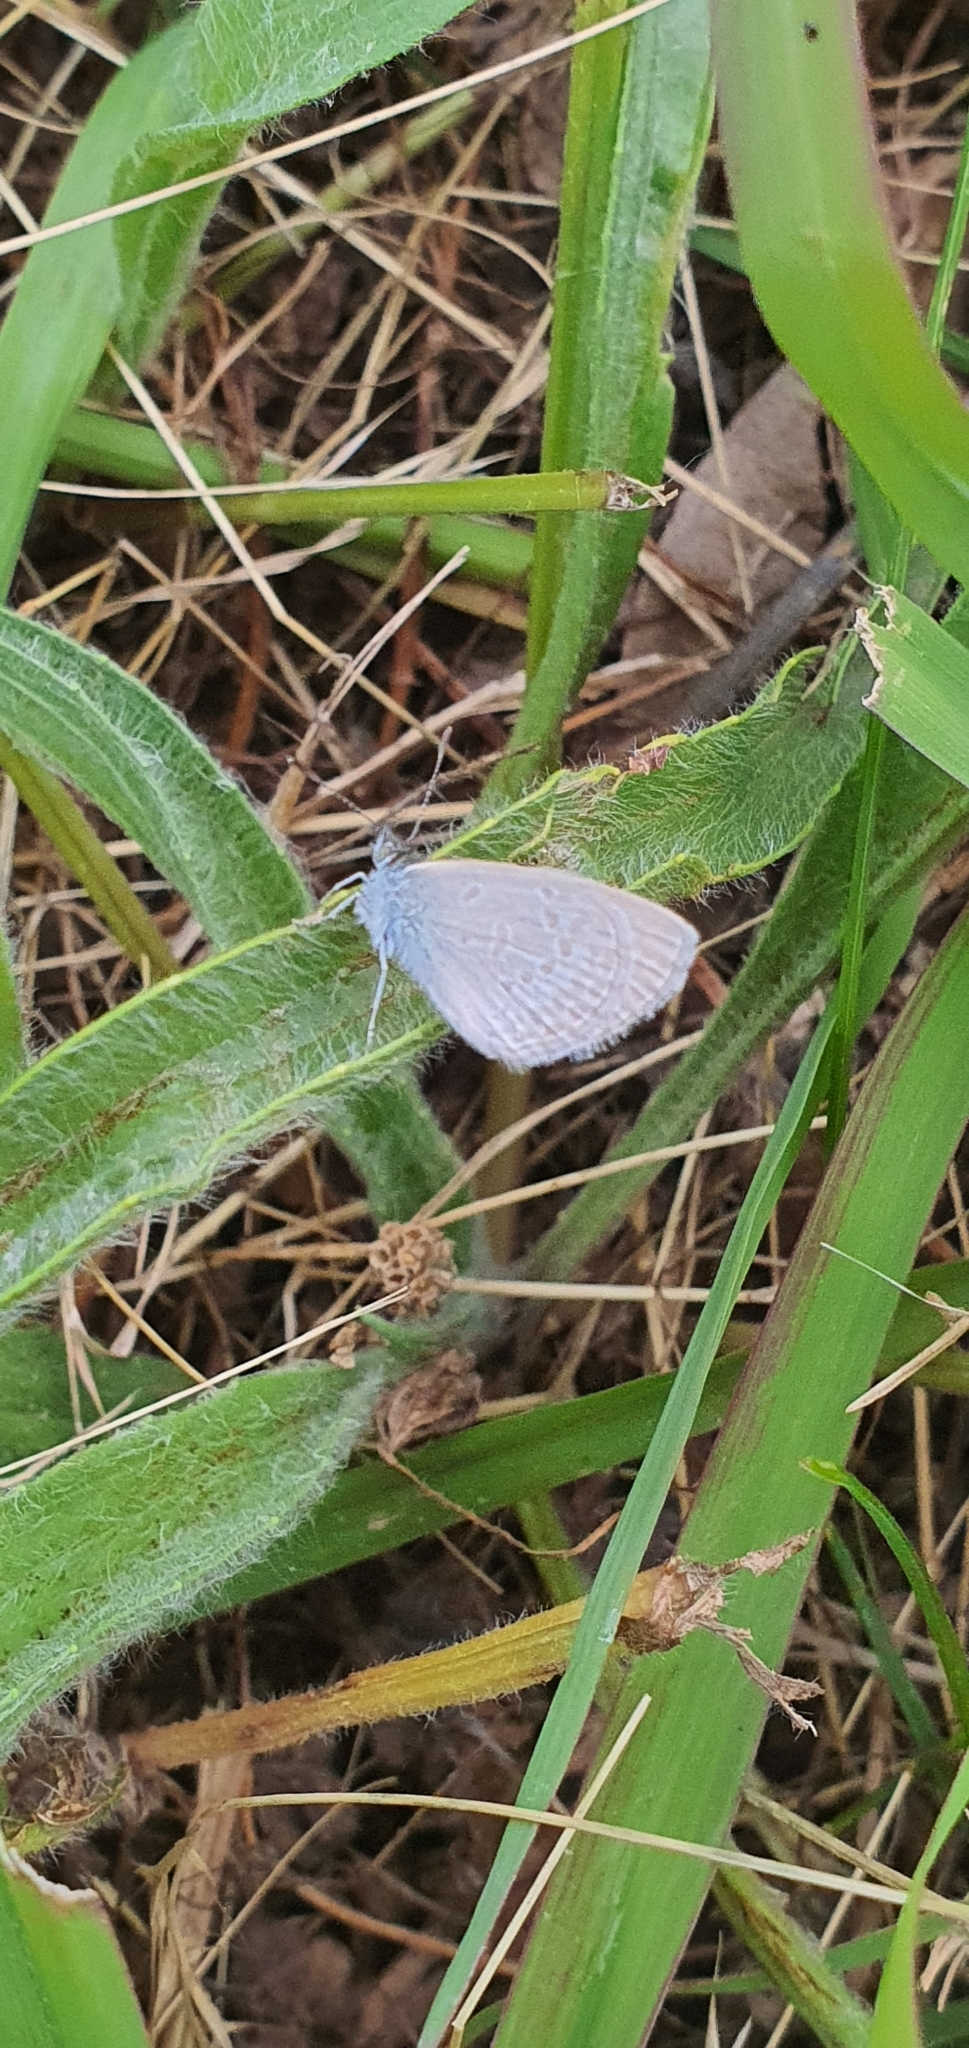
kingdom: Animalia
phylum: Arthropoda
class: Insecta
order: Lepidoptera
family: Lycaenidae
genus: Zizina
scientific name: Zizina labradus
